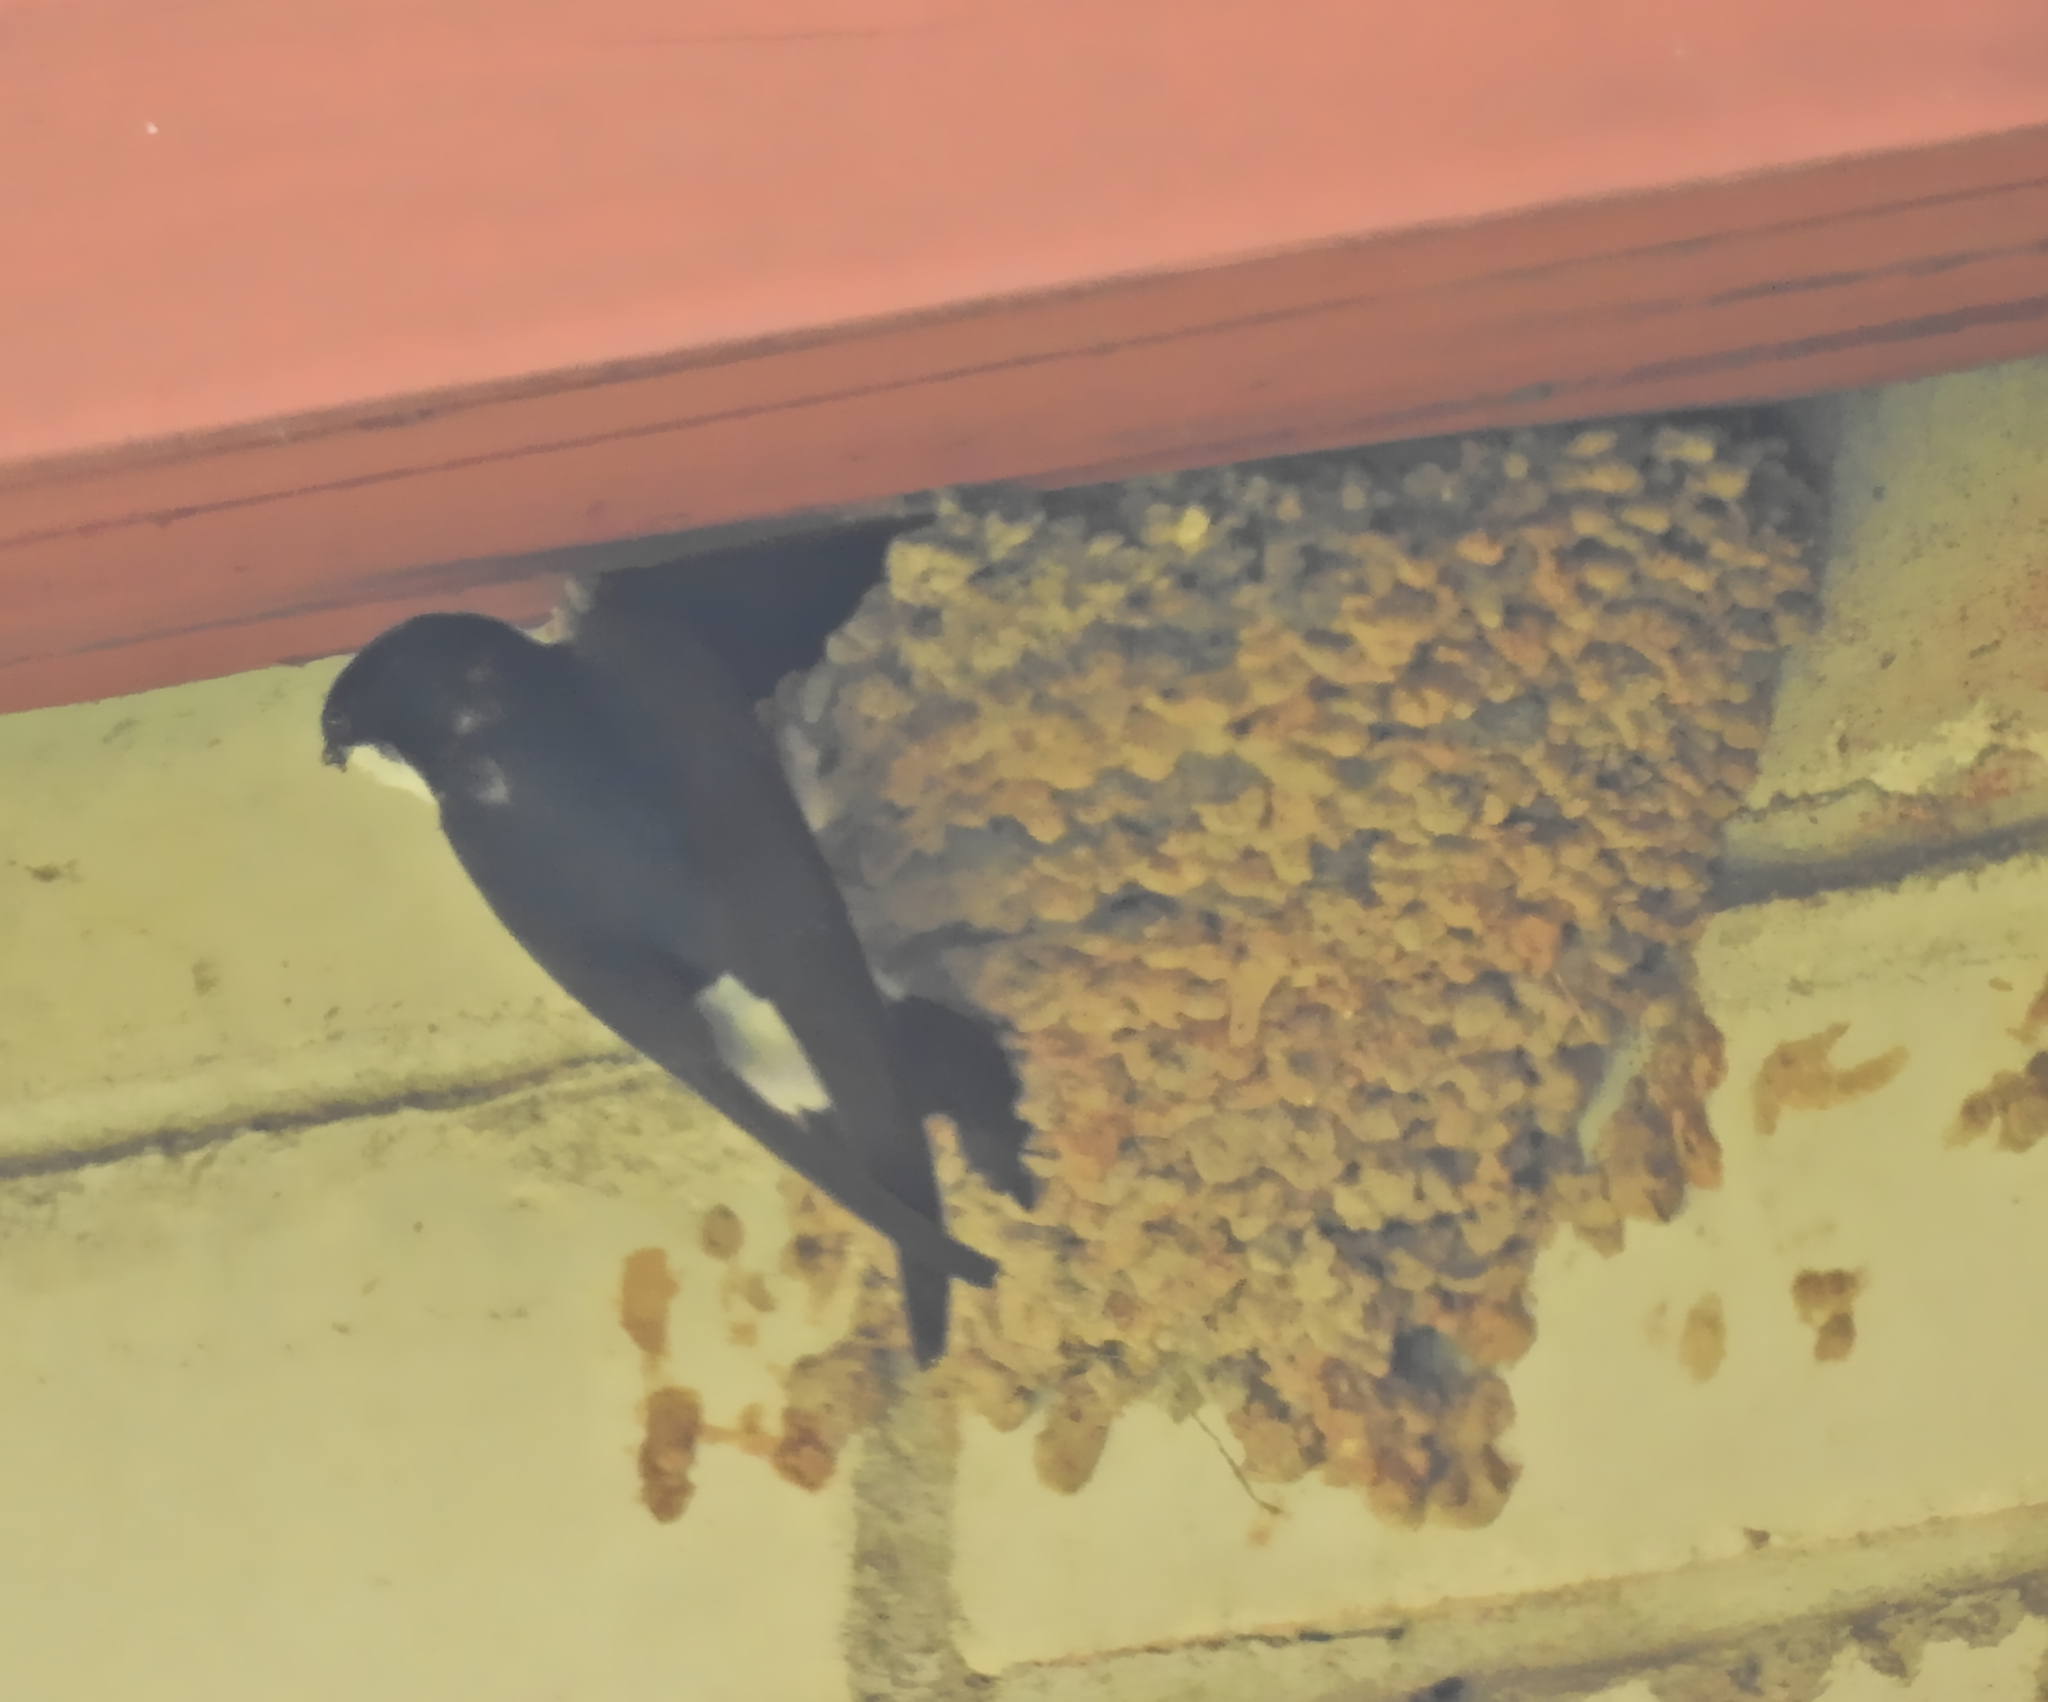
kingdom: Animalia
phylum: Chordata
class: Aves
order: Passeriformes
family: Hirundinidae
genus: Delichon
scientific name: Delichon urbicum
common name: Common house martin
